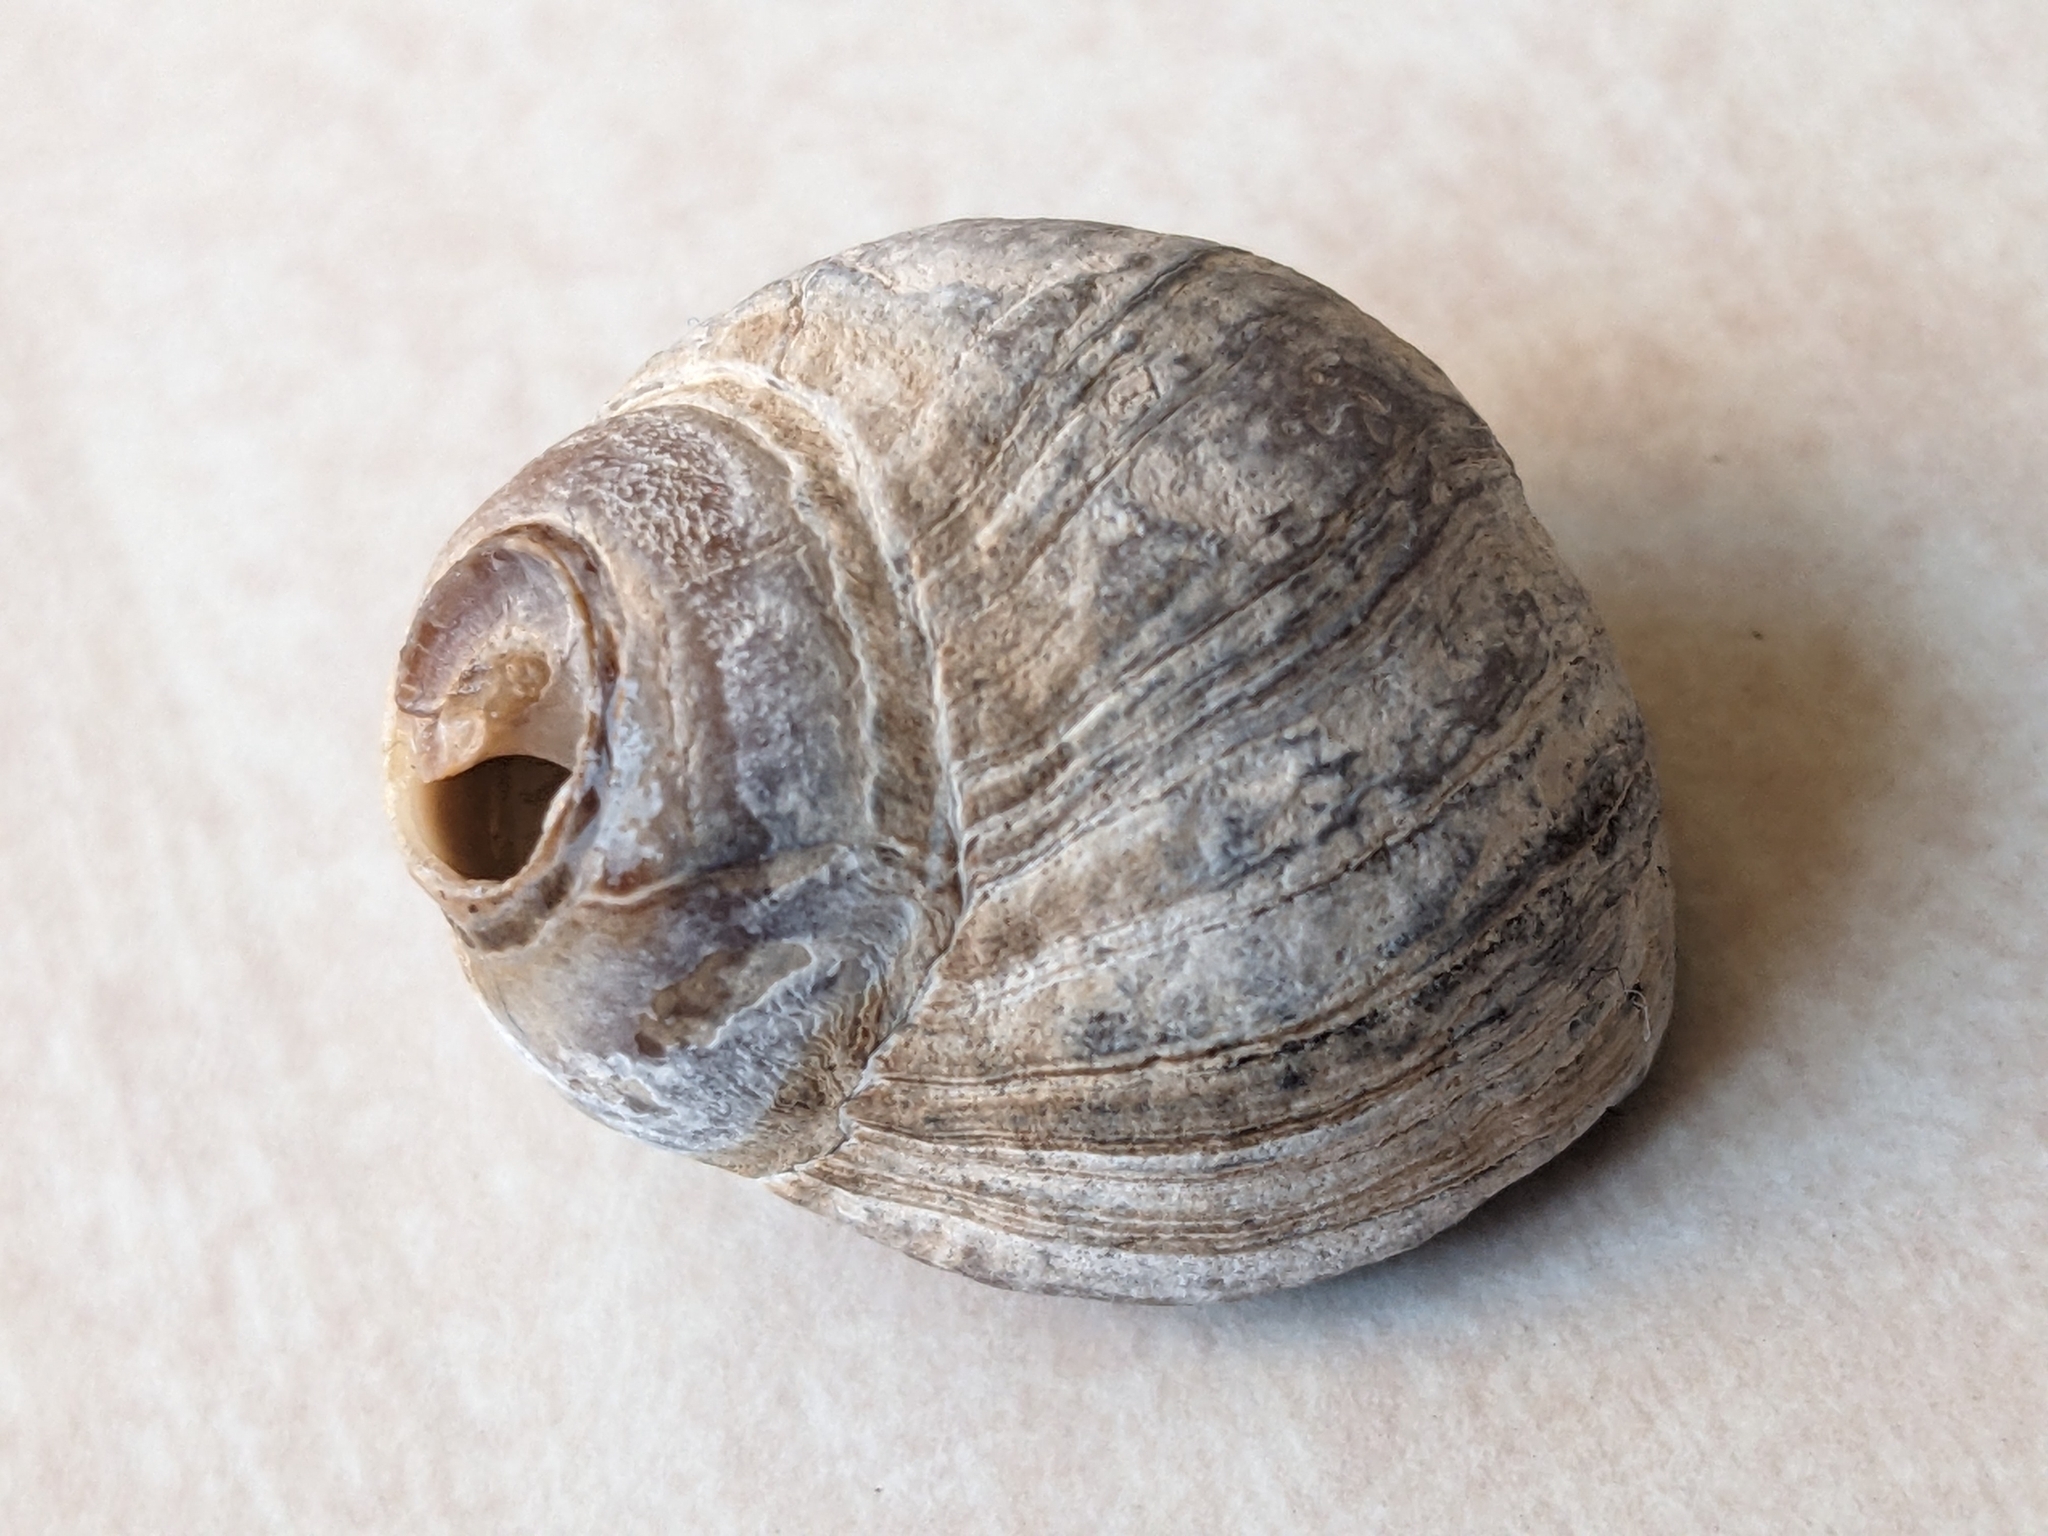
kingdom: Animalia
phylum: Mollusca
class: Gastropoda
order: Littorinimorpha
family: Littorinidae
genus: Littorina
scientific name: Littorina littorea
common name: Common periwinkle
